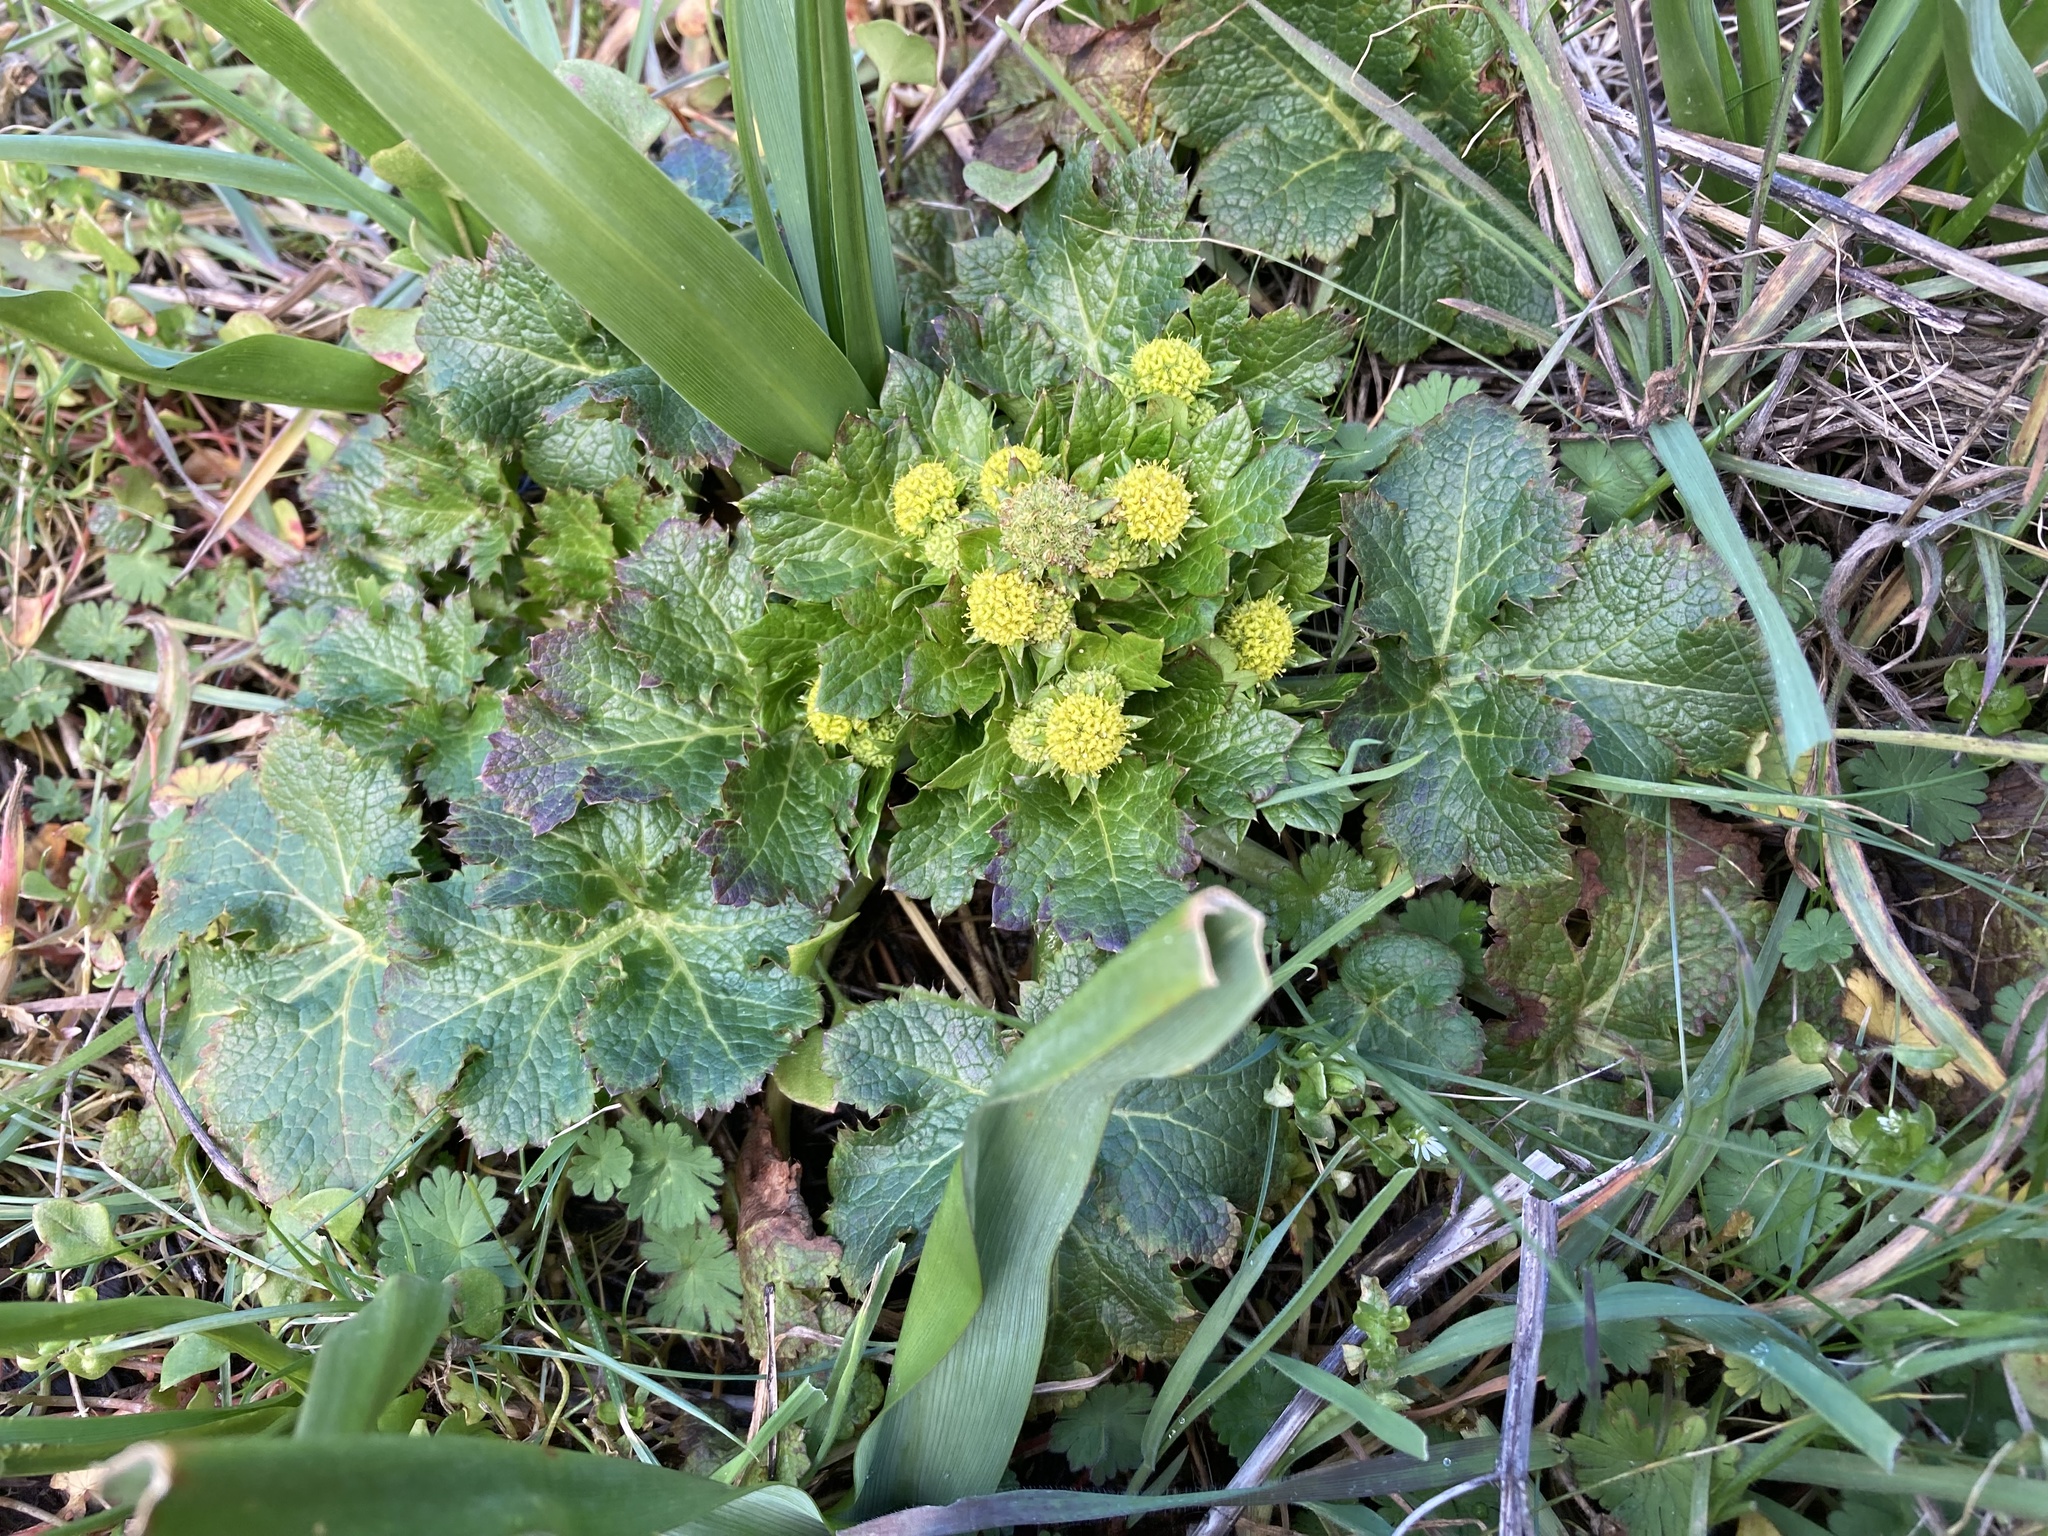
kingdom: Plantae
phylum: Tracheophyta
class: Magnoliopsida
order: Apiales
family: Apiaceae
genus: Sanicula
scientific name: Sanicula crassicaulis
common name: Western snakeroot
